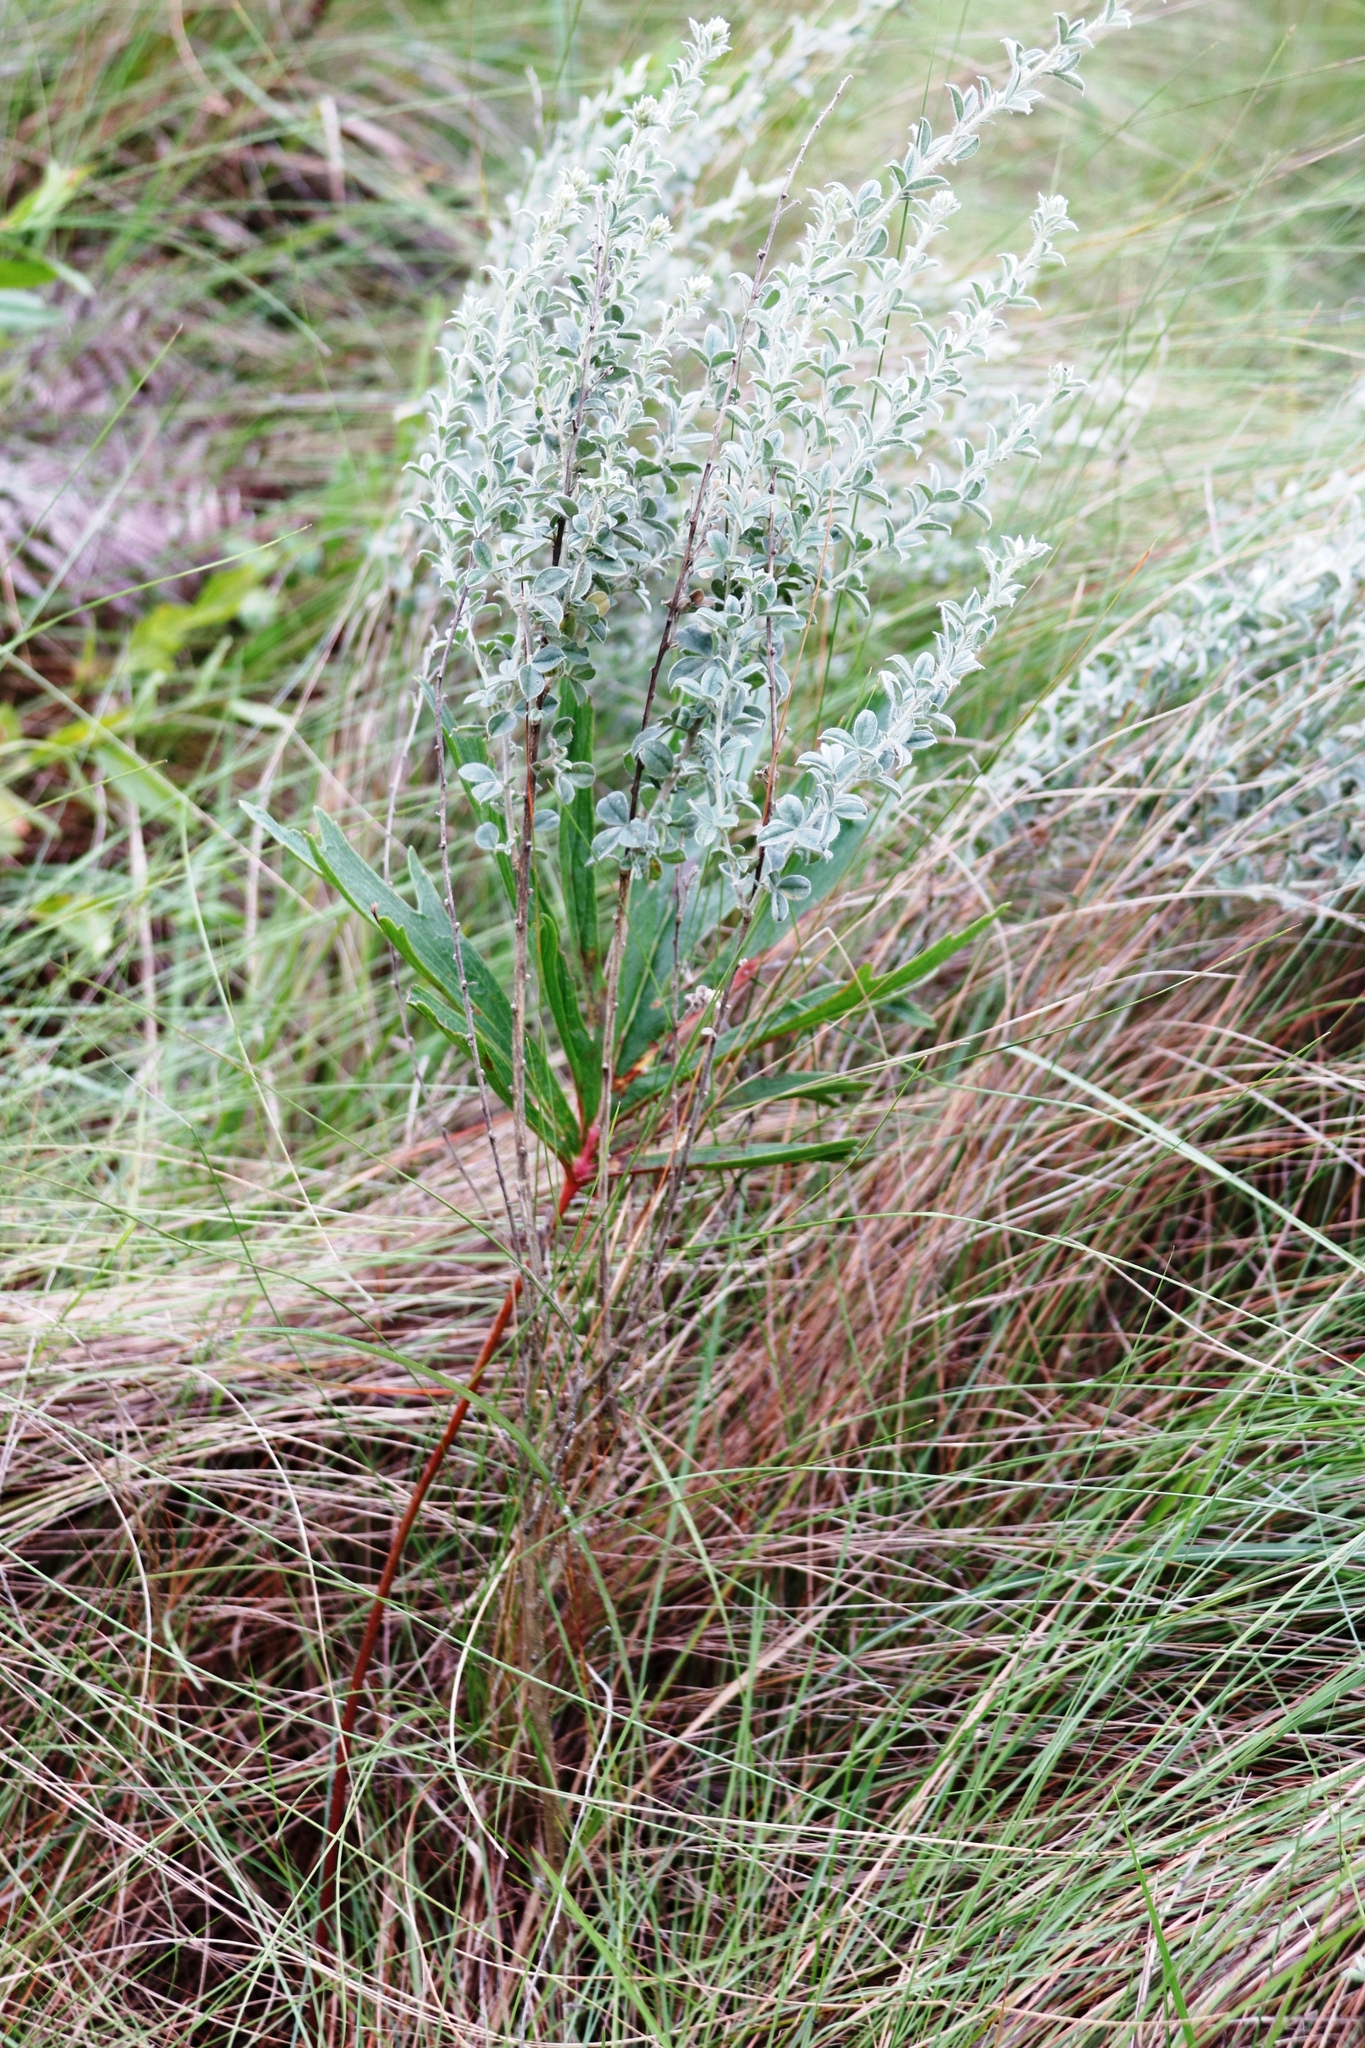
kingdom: Plantae
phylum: Tracheophyta
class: Magnoliopsida
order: Geraniales
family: Geraniaceae
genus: Pelargonium
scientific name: Pelargonium luridum
